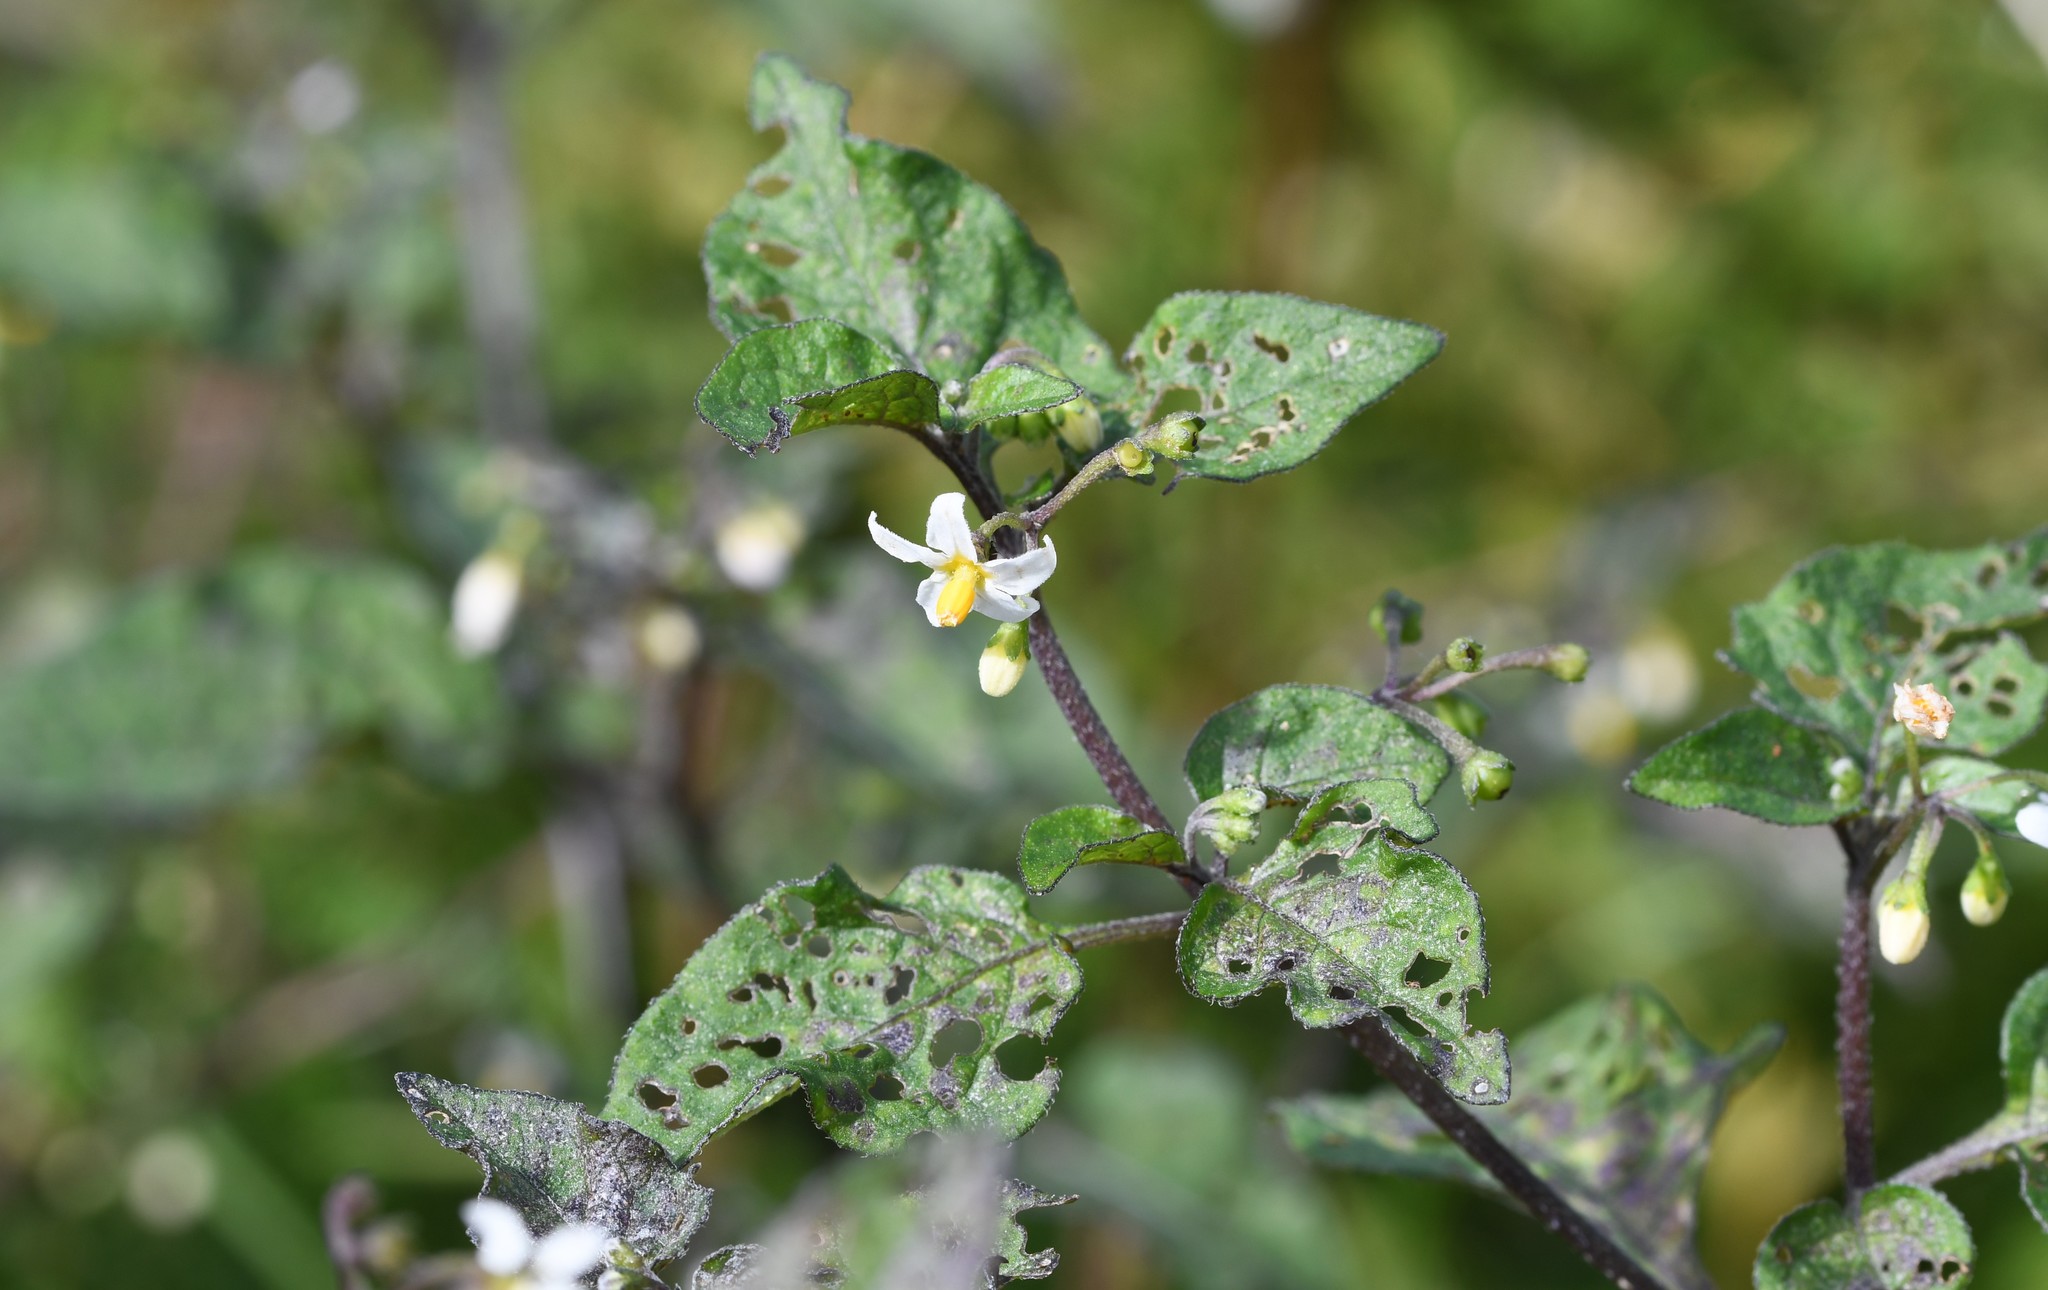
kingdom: Plantae
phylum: Tracheophyta
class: Magnoliopsida
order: Solanales
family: Solanaceae
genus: Solanum
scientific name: Solanum nigrum
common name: Black nightshade
